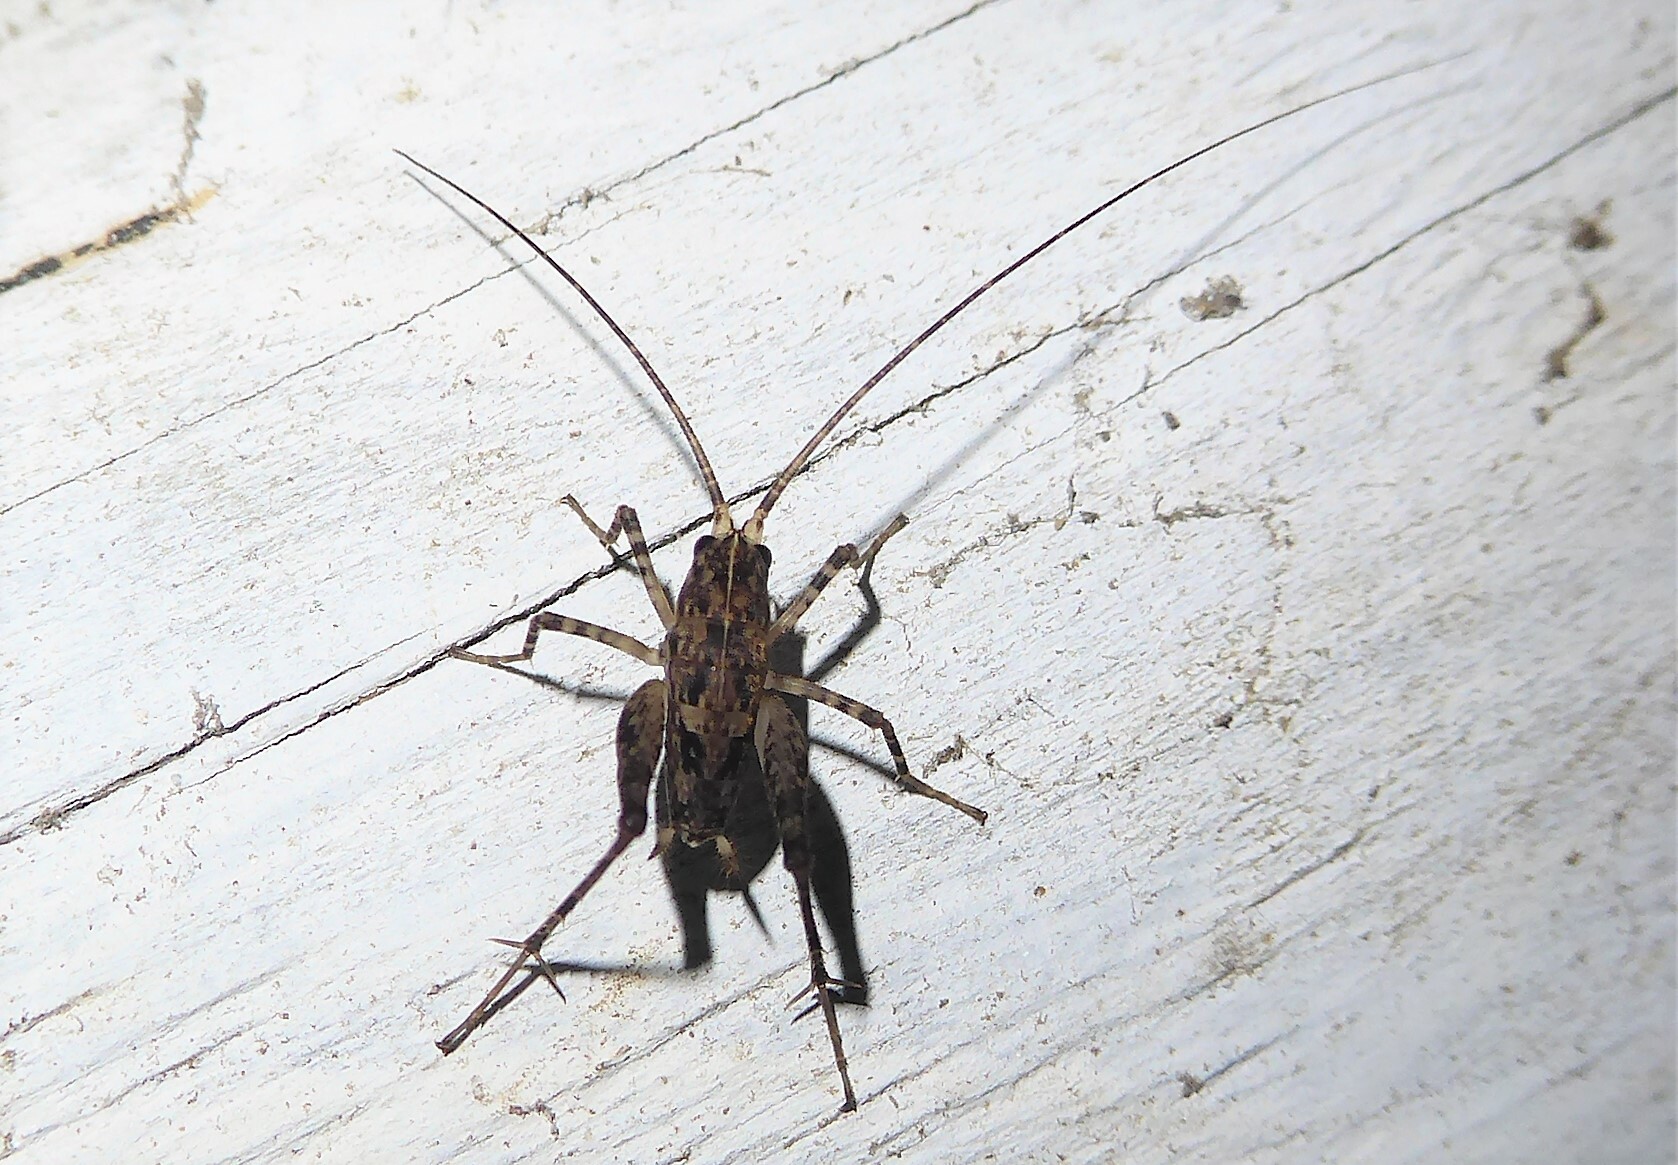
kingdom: Animalia
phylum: Arthropoda
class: Insecta
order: Orthoptera
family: Rhaphidophoridae
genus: Pleioplectron
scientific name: Pleioplectron simplex
